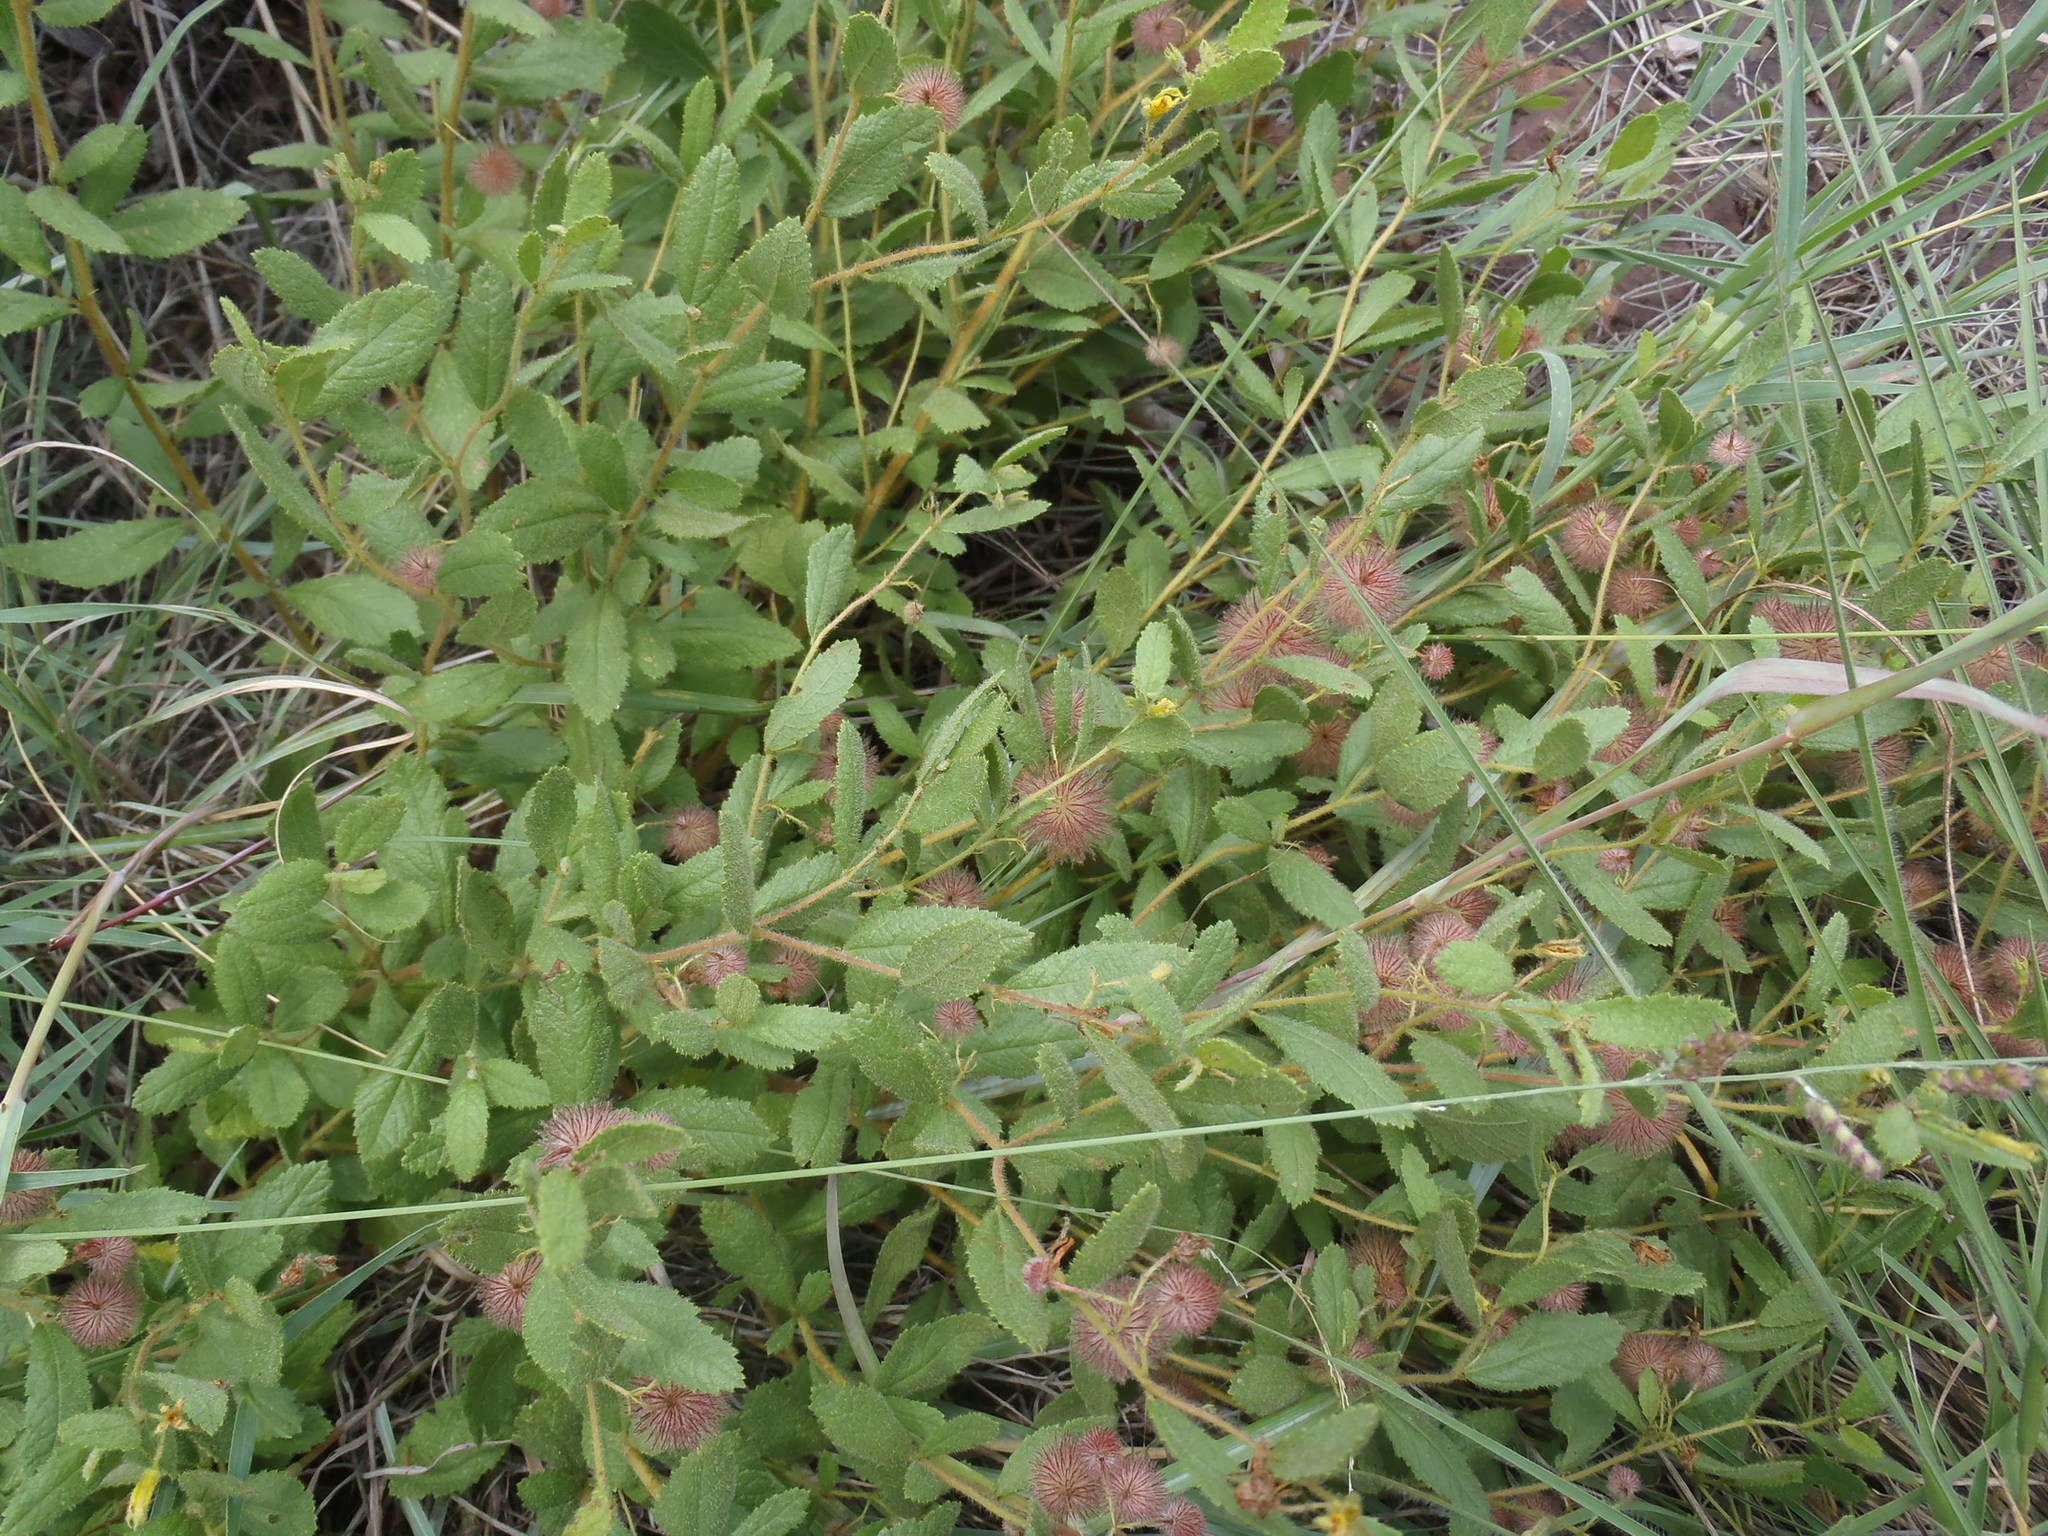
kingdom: Plantae
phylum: Tracheophyta
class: Magnoliopsida
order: Malvales
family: Malvaceae
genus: Triumfetta
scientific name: Triumfetta sonderi
